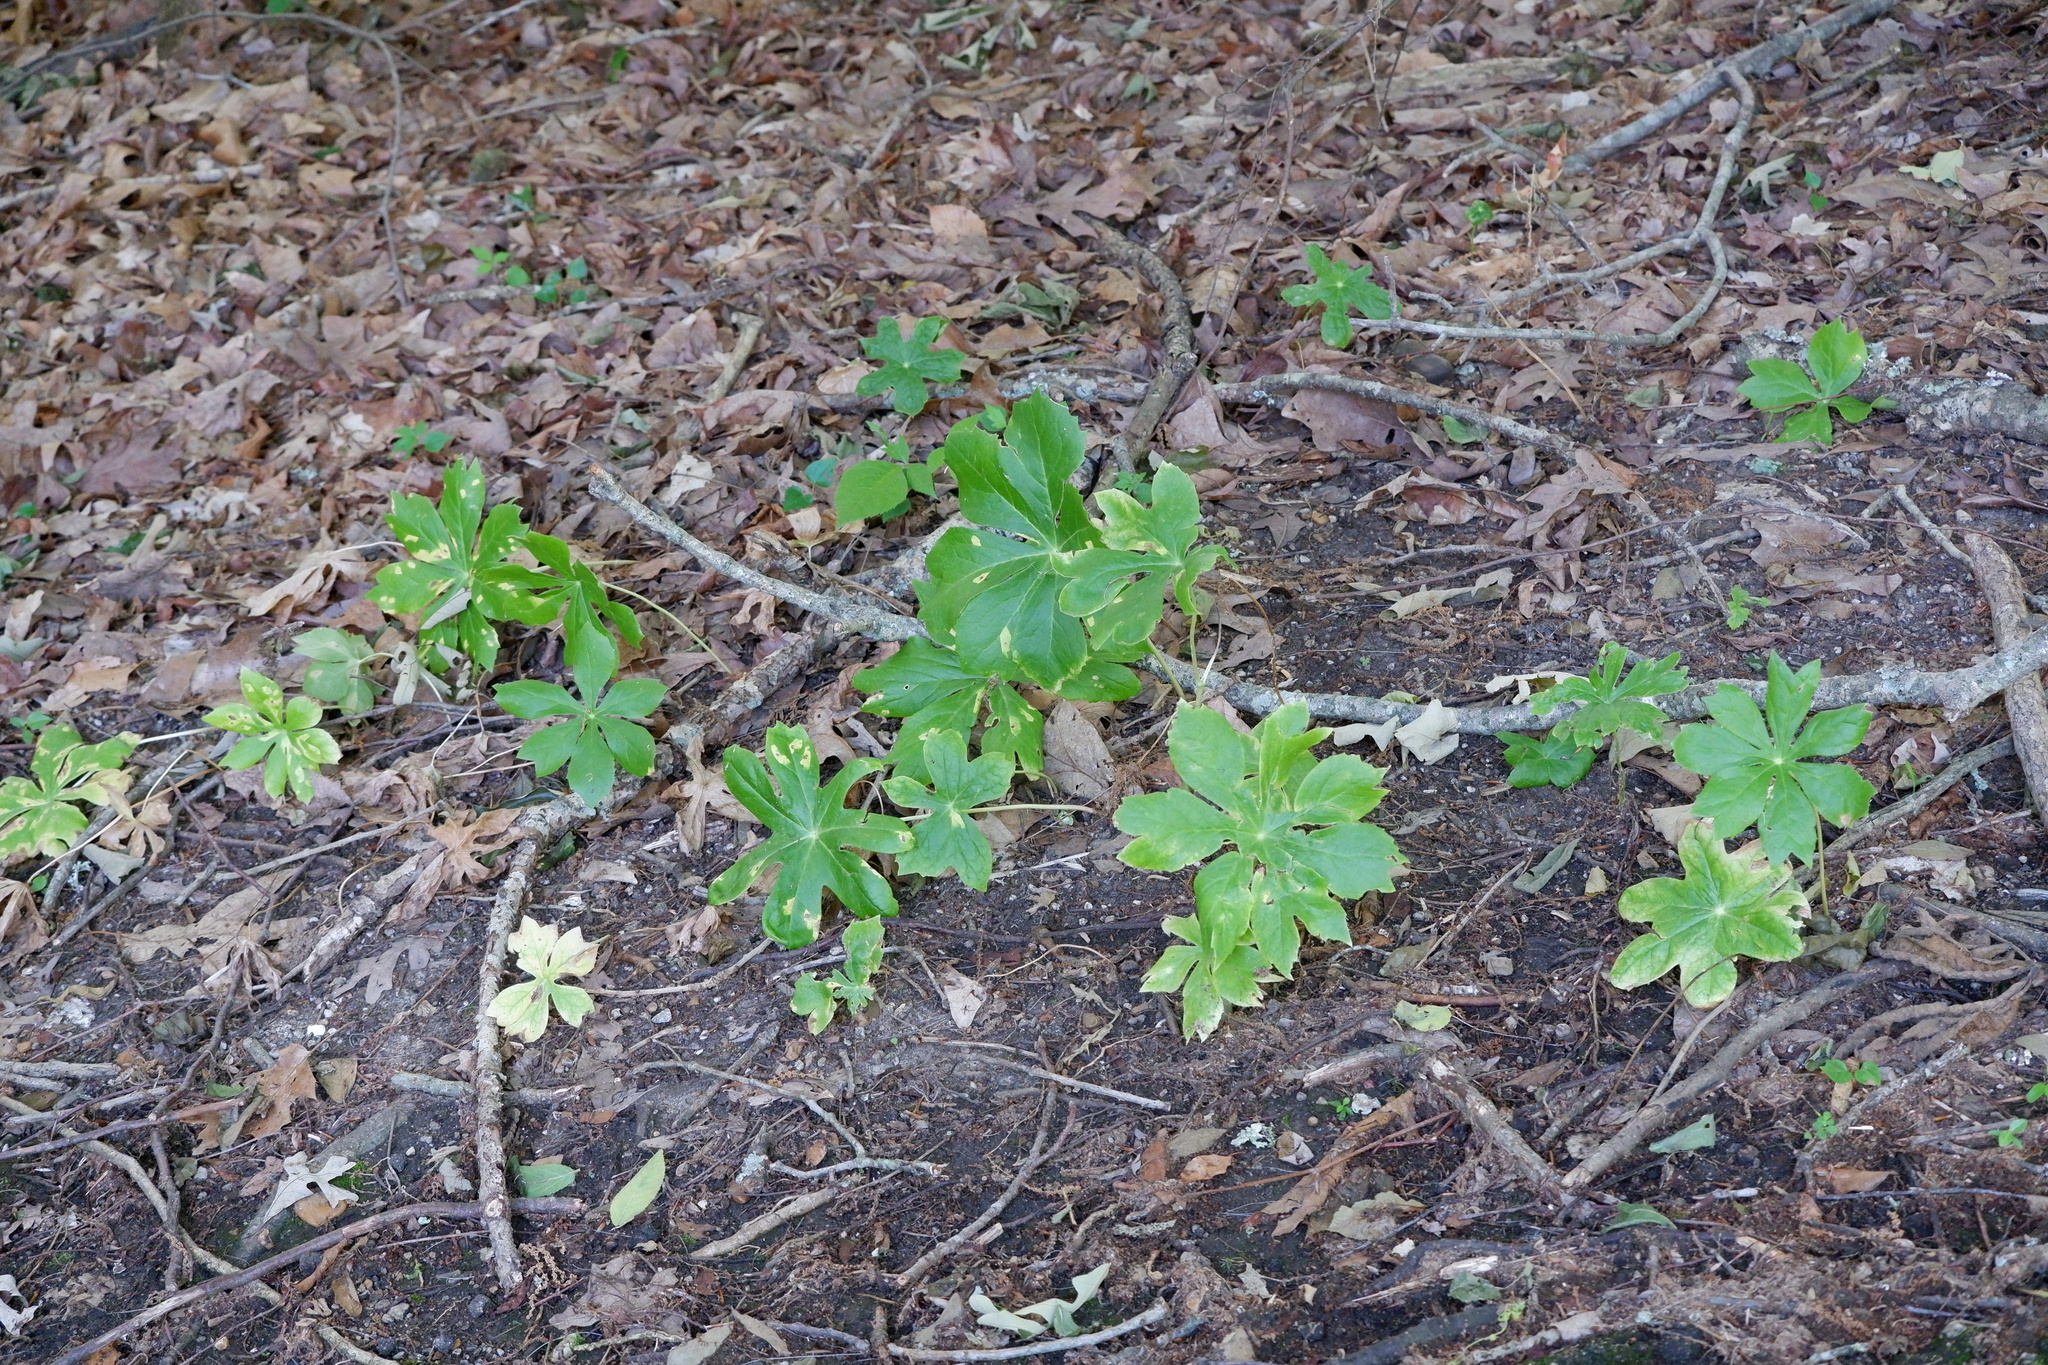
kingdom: Fungi
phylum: Basidiomycota
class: Pucciniomycetes
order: Pucciniales
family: Pucciniaceae
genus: Puccinia
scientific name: Puccinia podophylli
